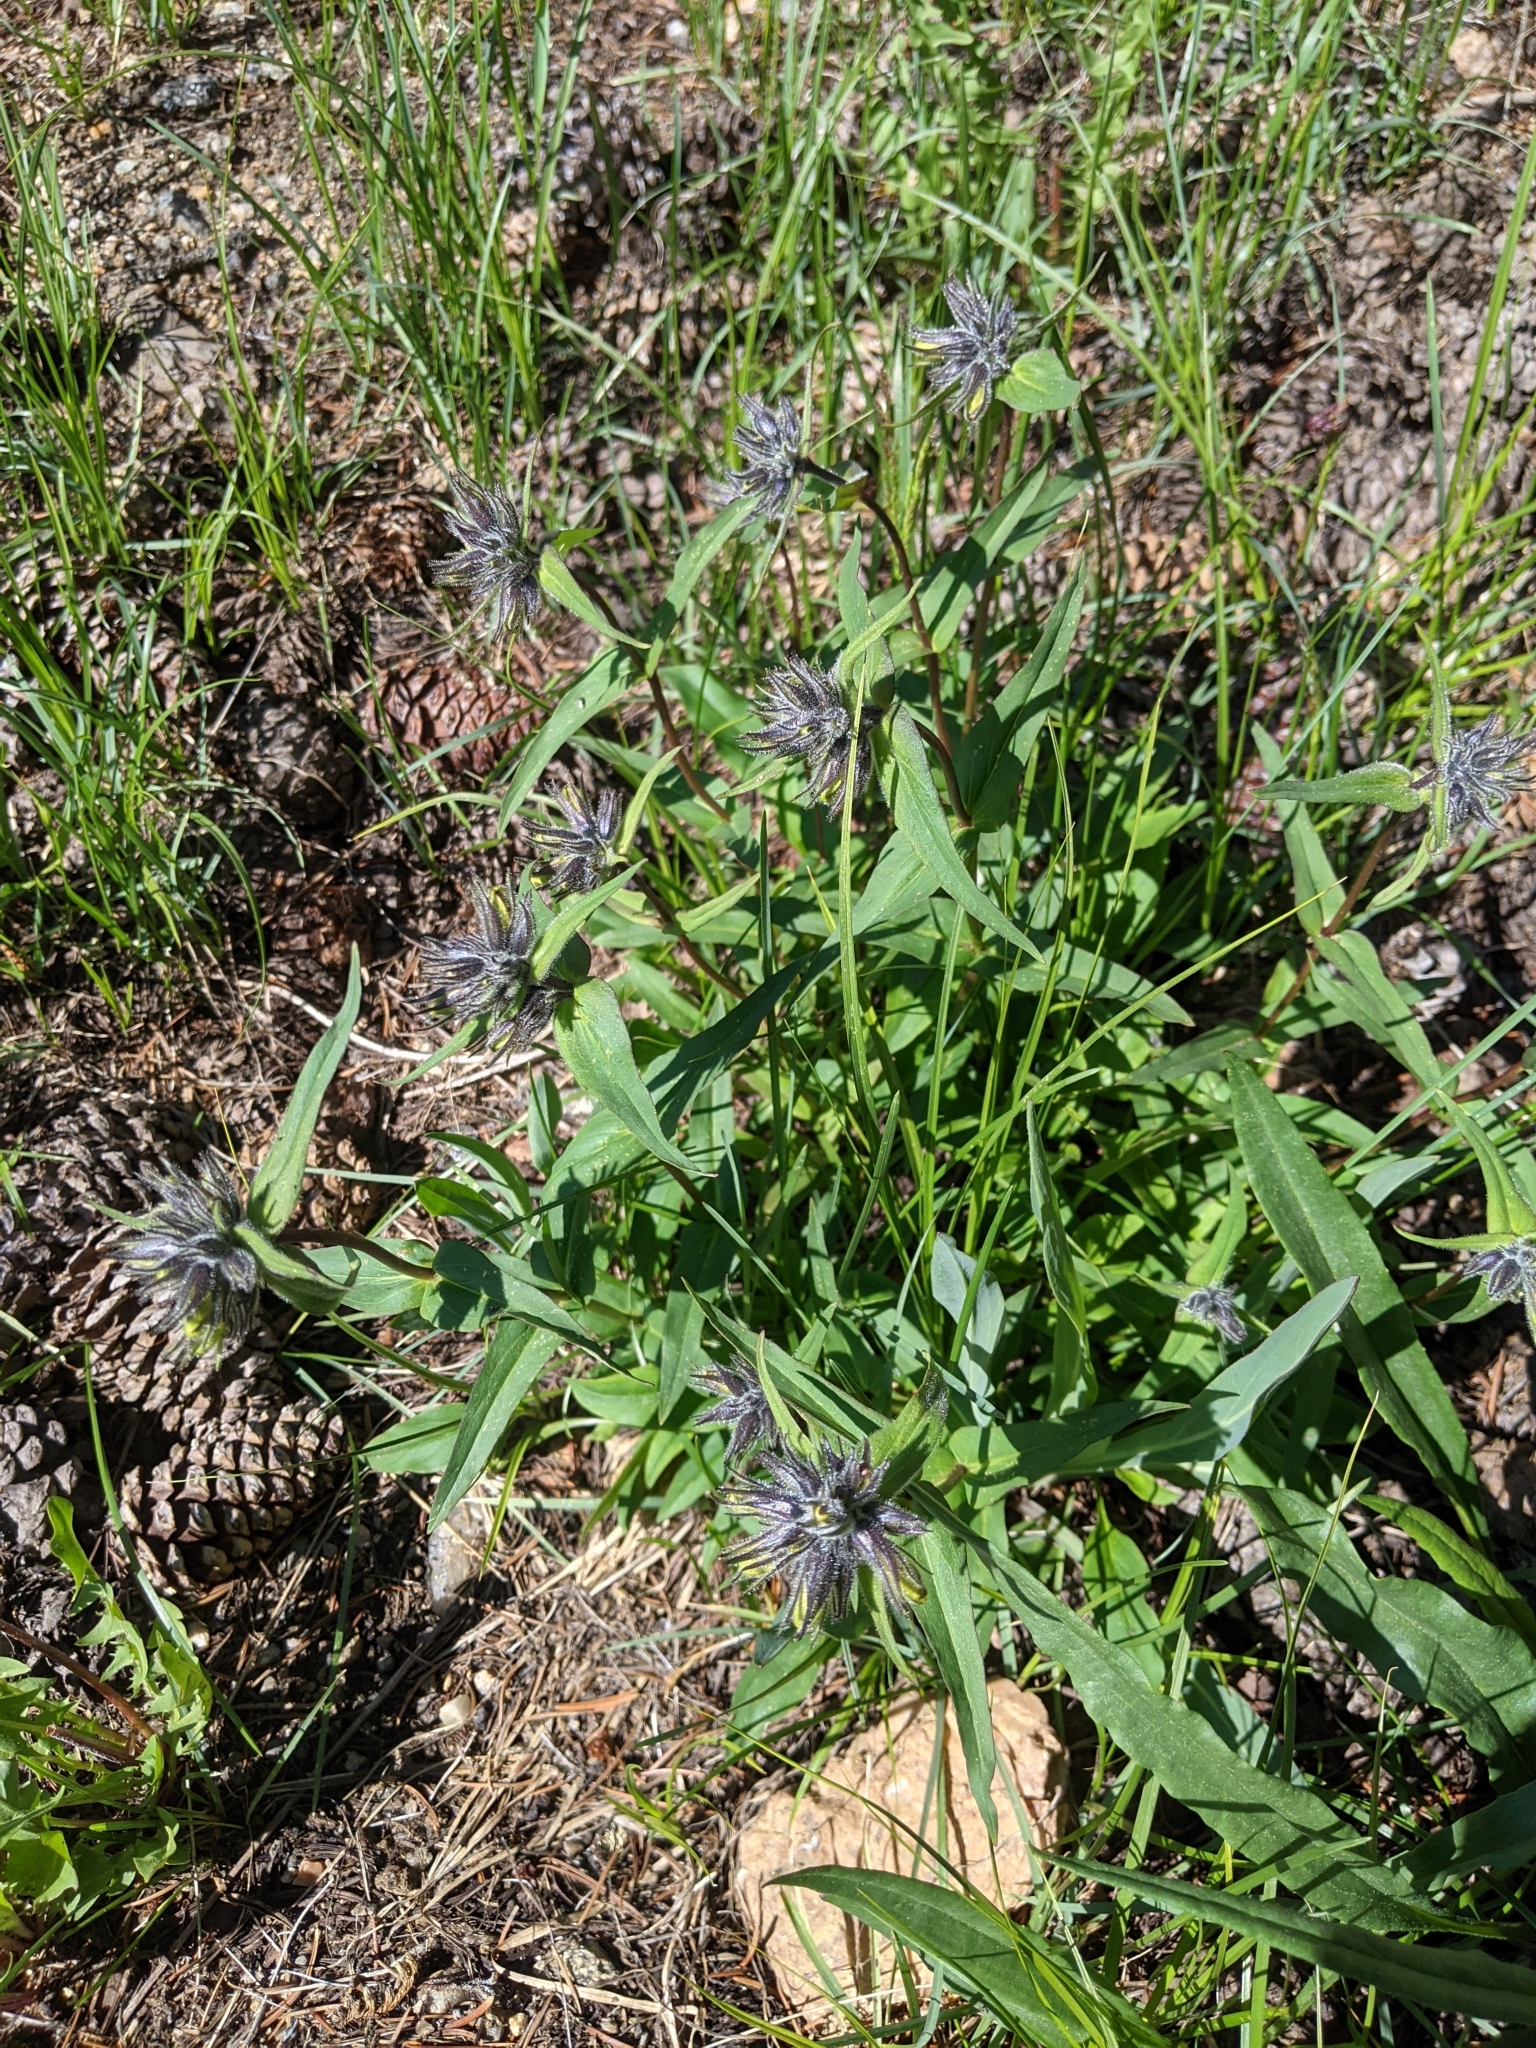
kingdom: Plantae
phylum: Tracheophyta
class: Magnoliopsida
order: Lamiales
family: Plantaginaceae
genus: Penstemon
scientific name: Penstemon whippleanus
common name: Whipple's penstemon
